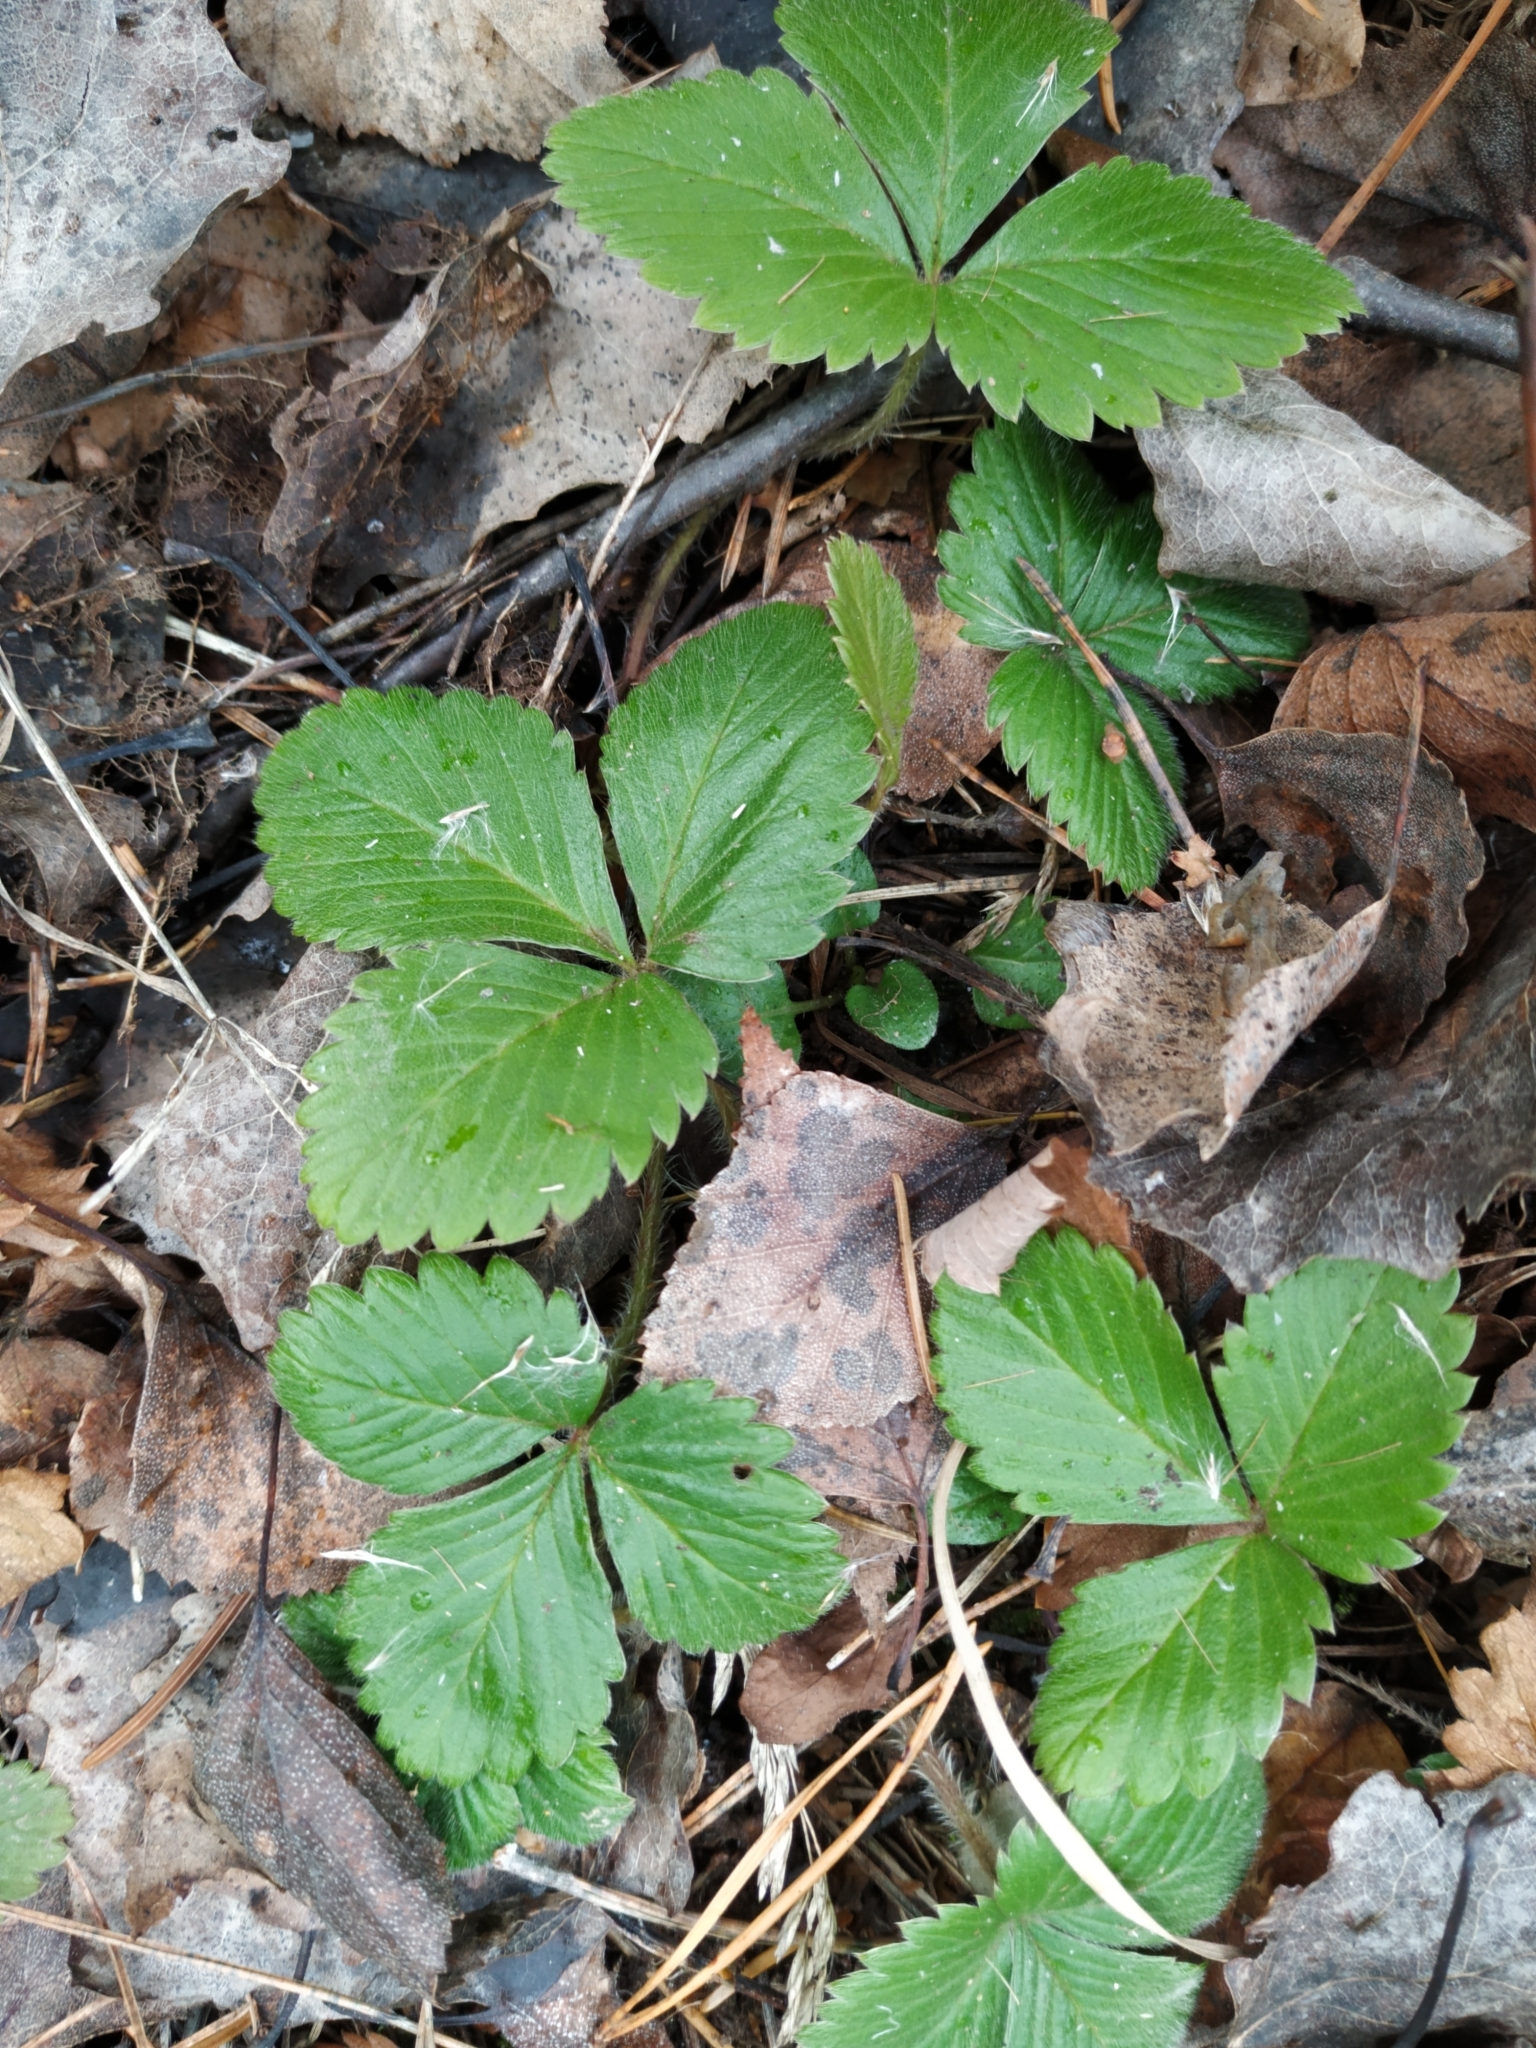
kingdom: Plantae
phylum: Tracheophyta
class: Magnoliopsida
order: Rosales
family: Rosaceae
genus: Fragaria
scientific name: Fragaria vesca
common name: Wild strawberry
